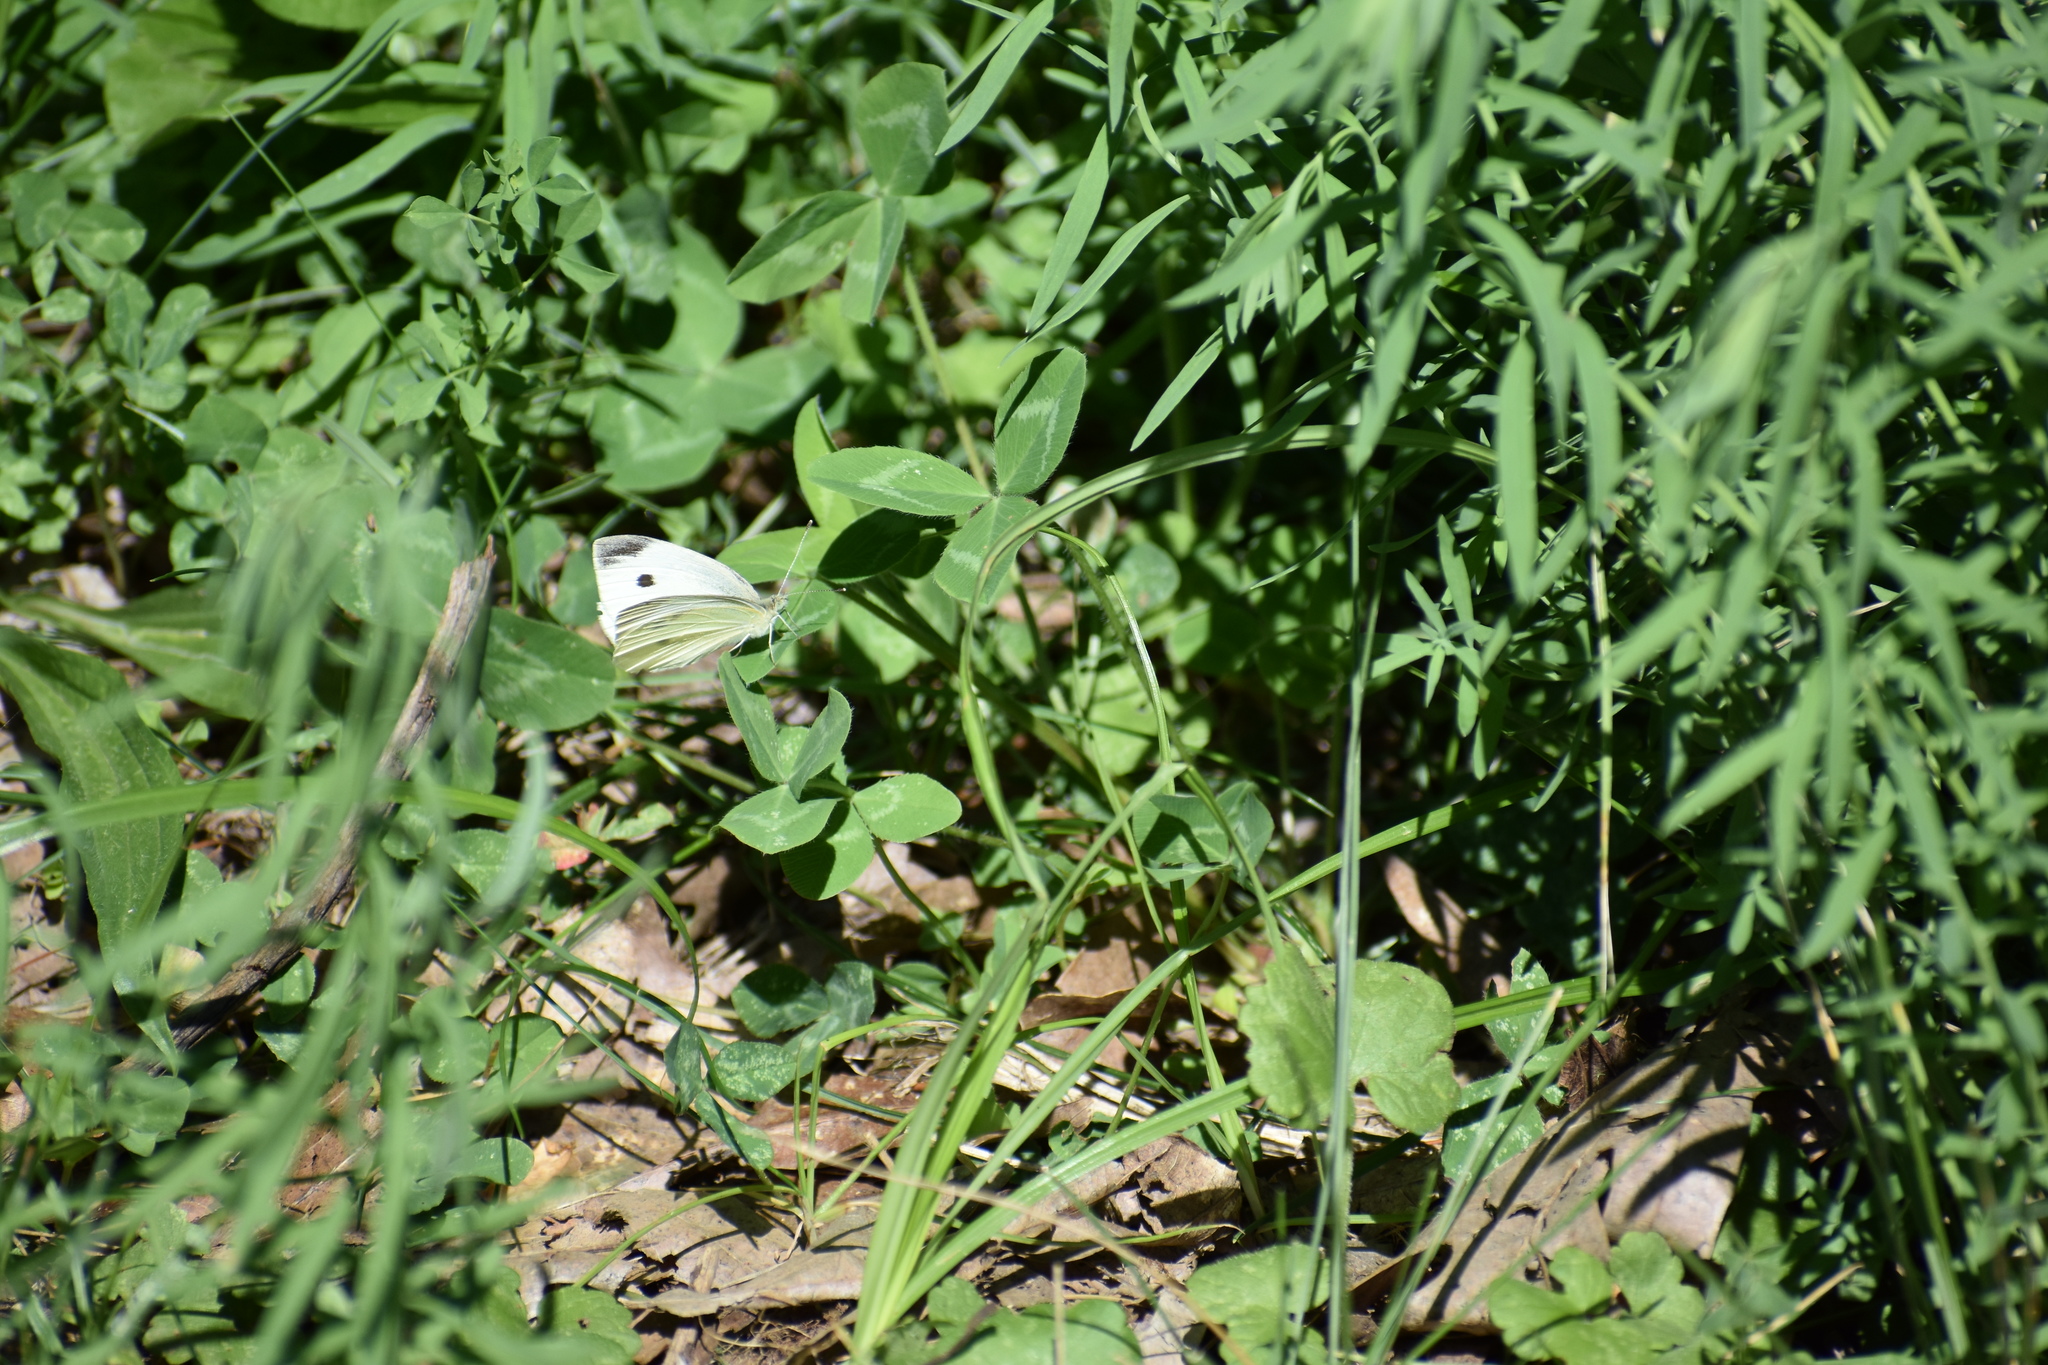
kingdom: Animalia
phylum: Arthropoda
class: Insecta
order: Lepidoptera
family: Pieridae
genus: Pieris
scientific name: Pieris rapae
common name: Small white
